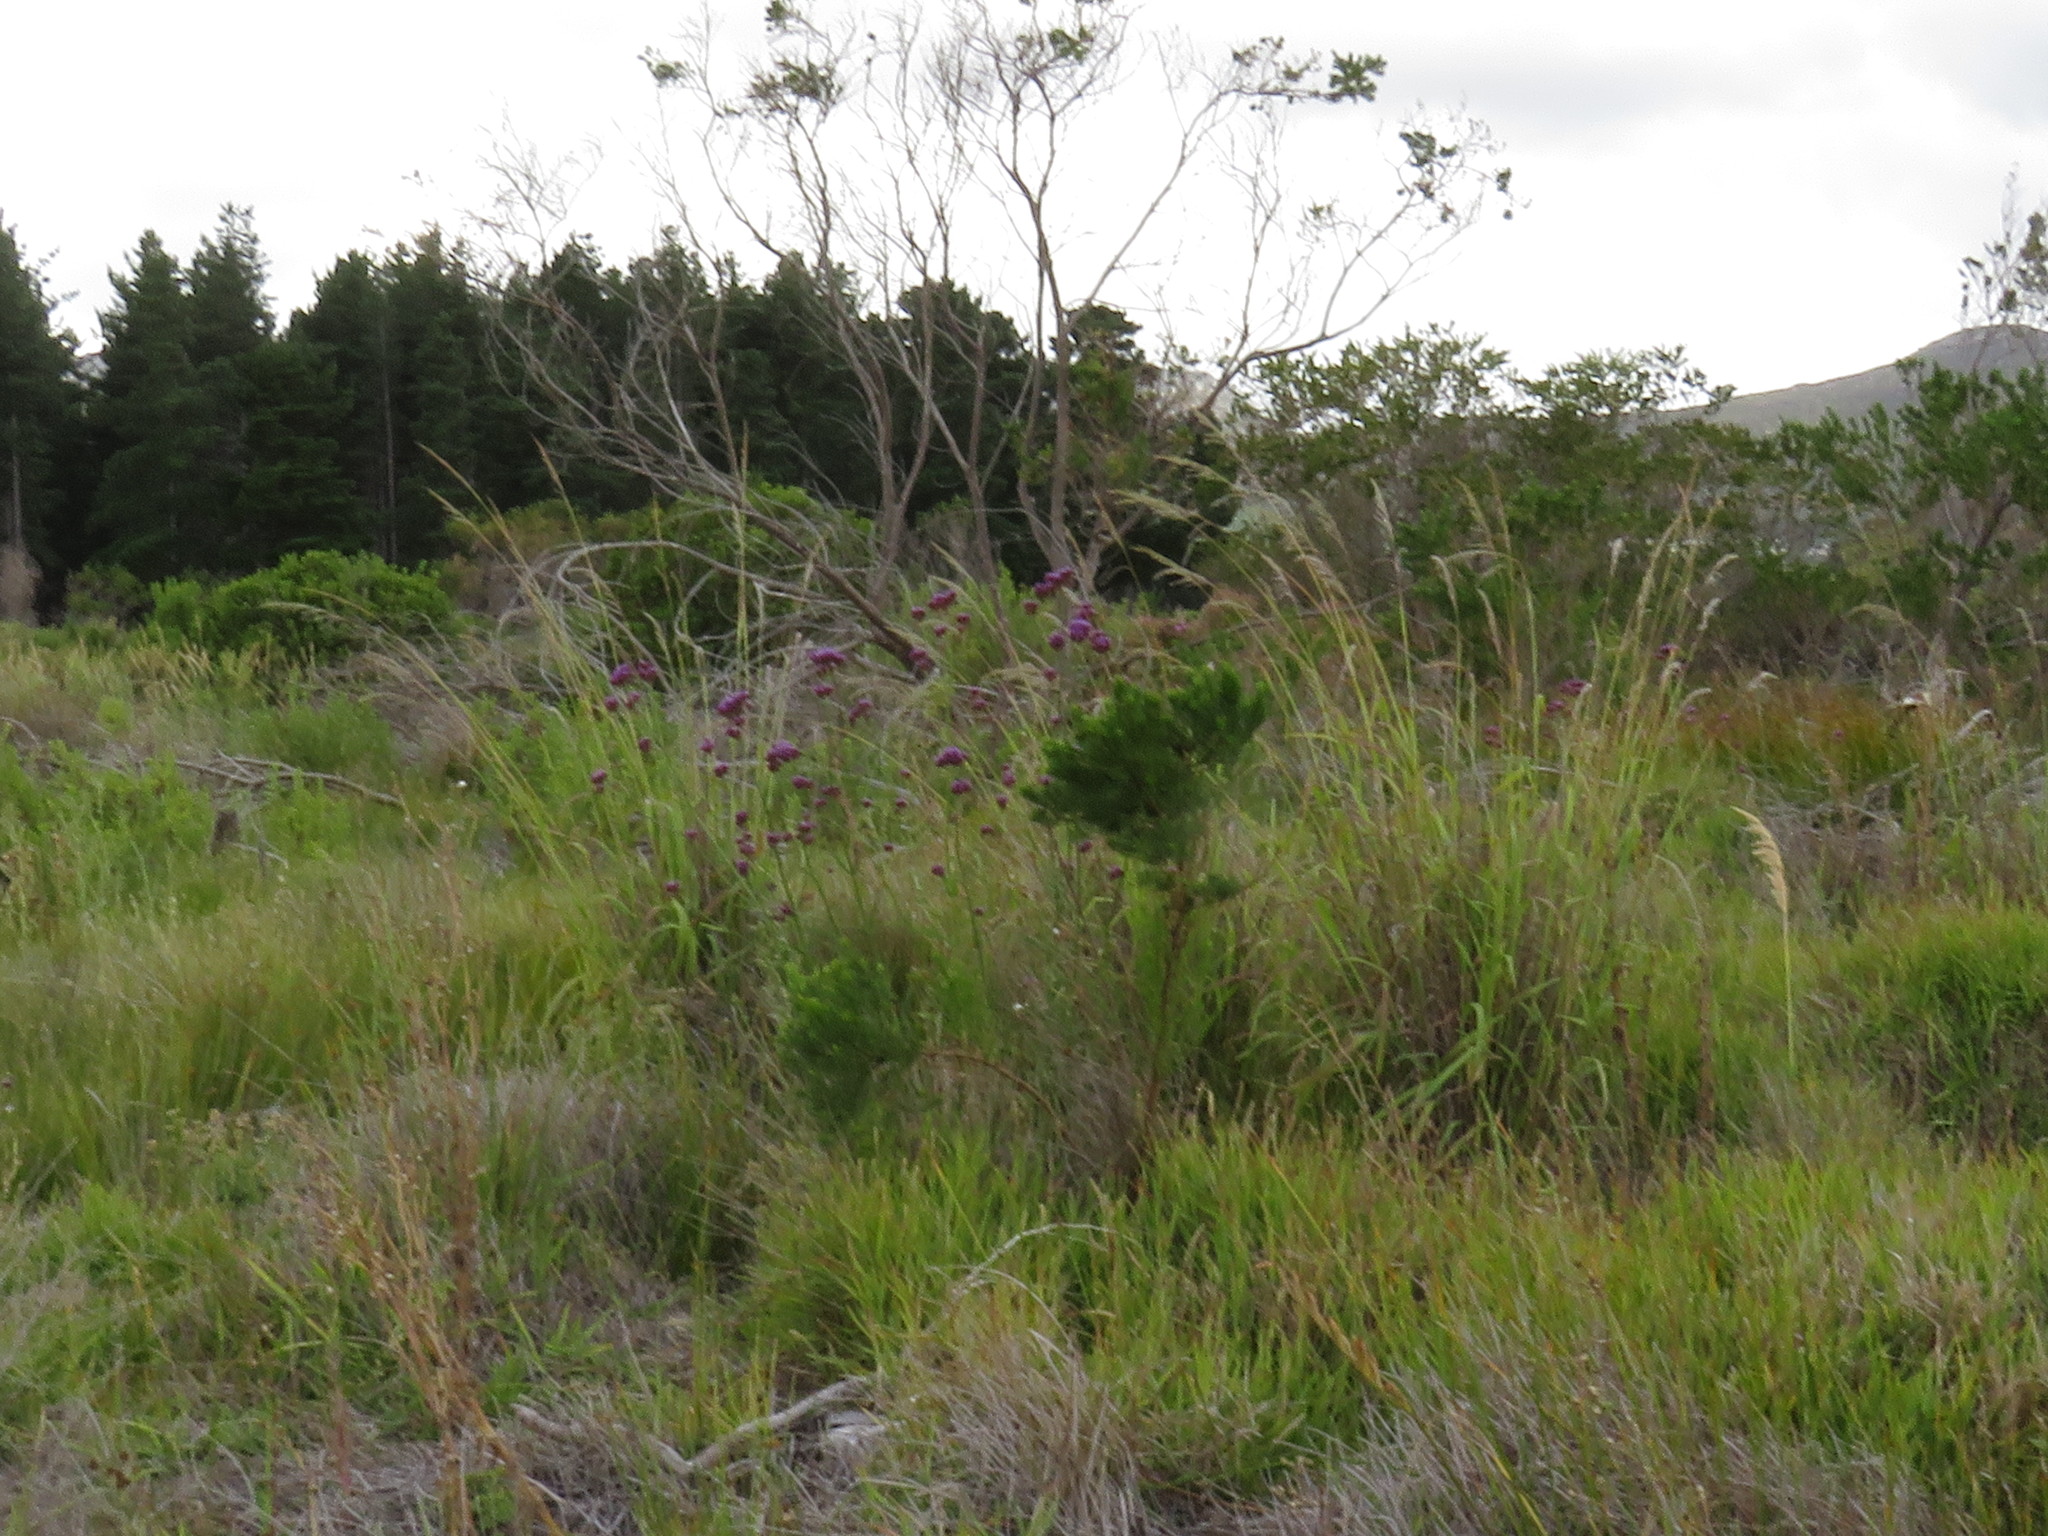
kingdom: Plantae
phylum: Tracheophyta
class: Magnoliopsida
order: Lamiales
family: Verbenaceae
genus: Verbena
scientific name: Verbena bonariensis
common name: Purpletop vervain
